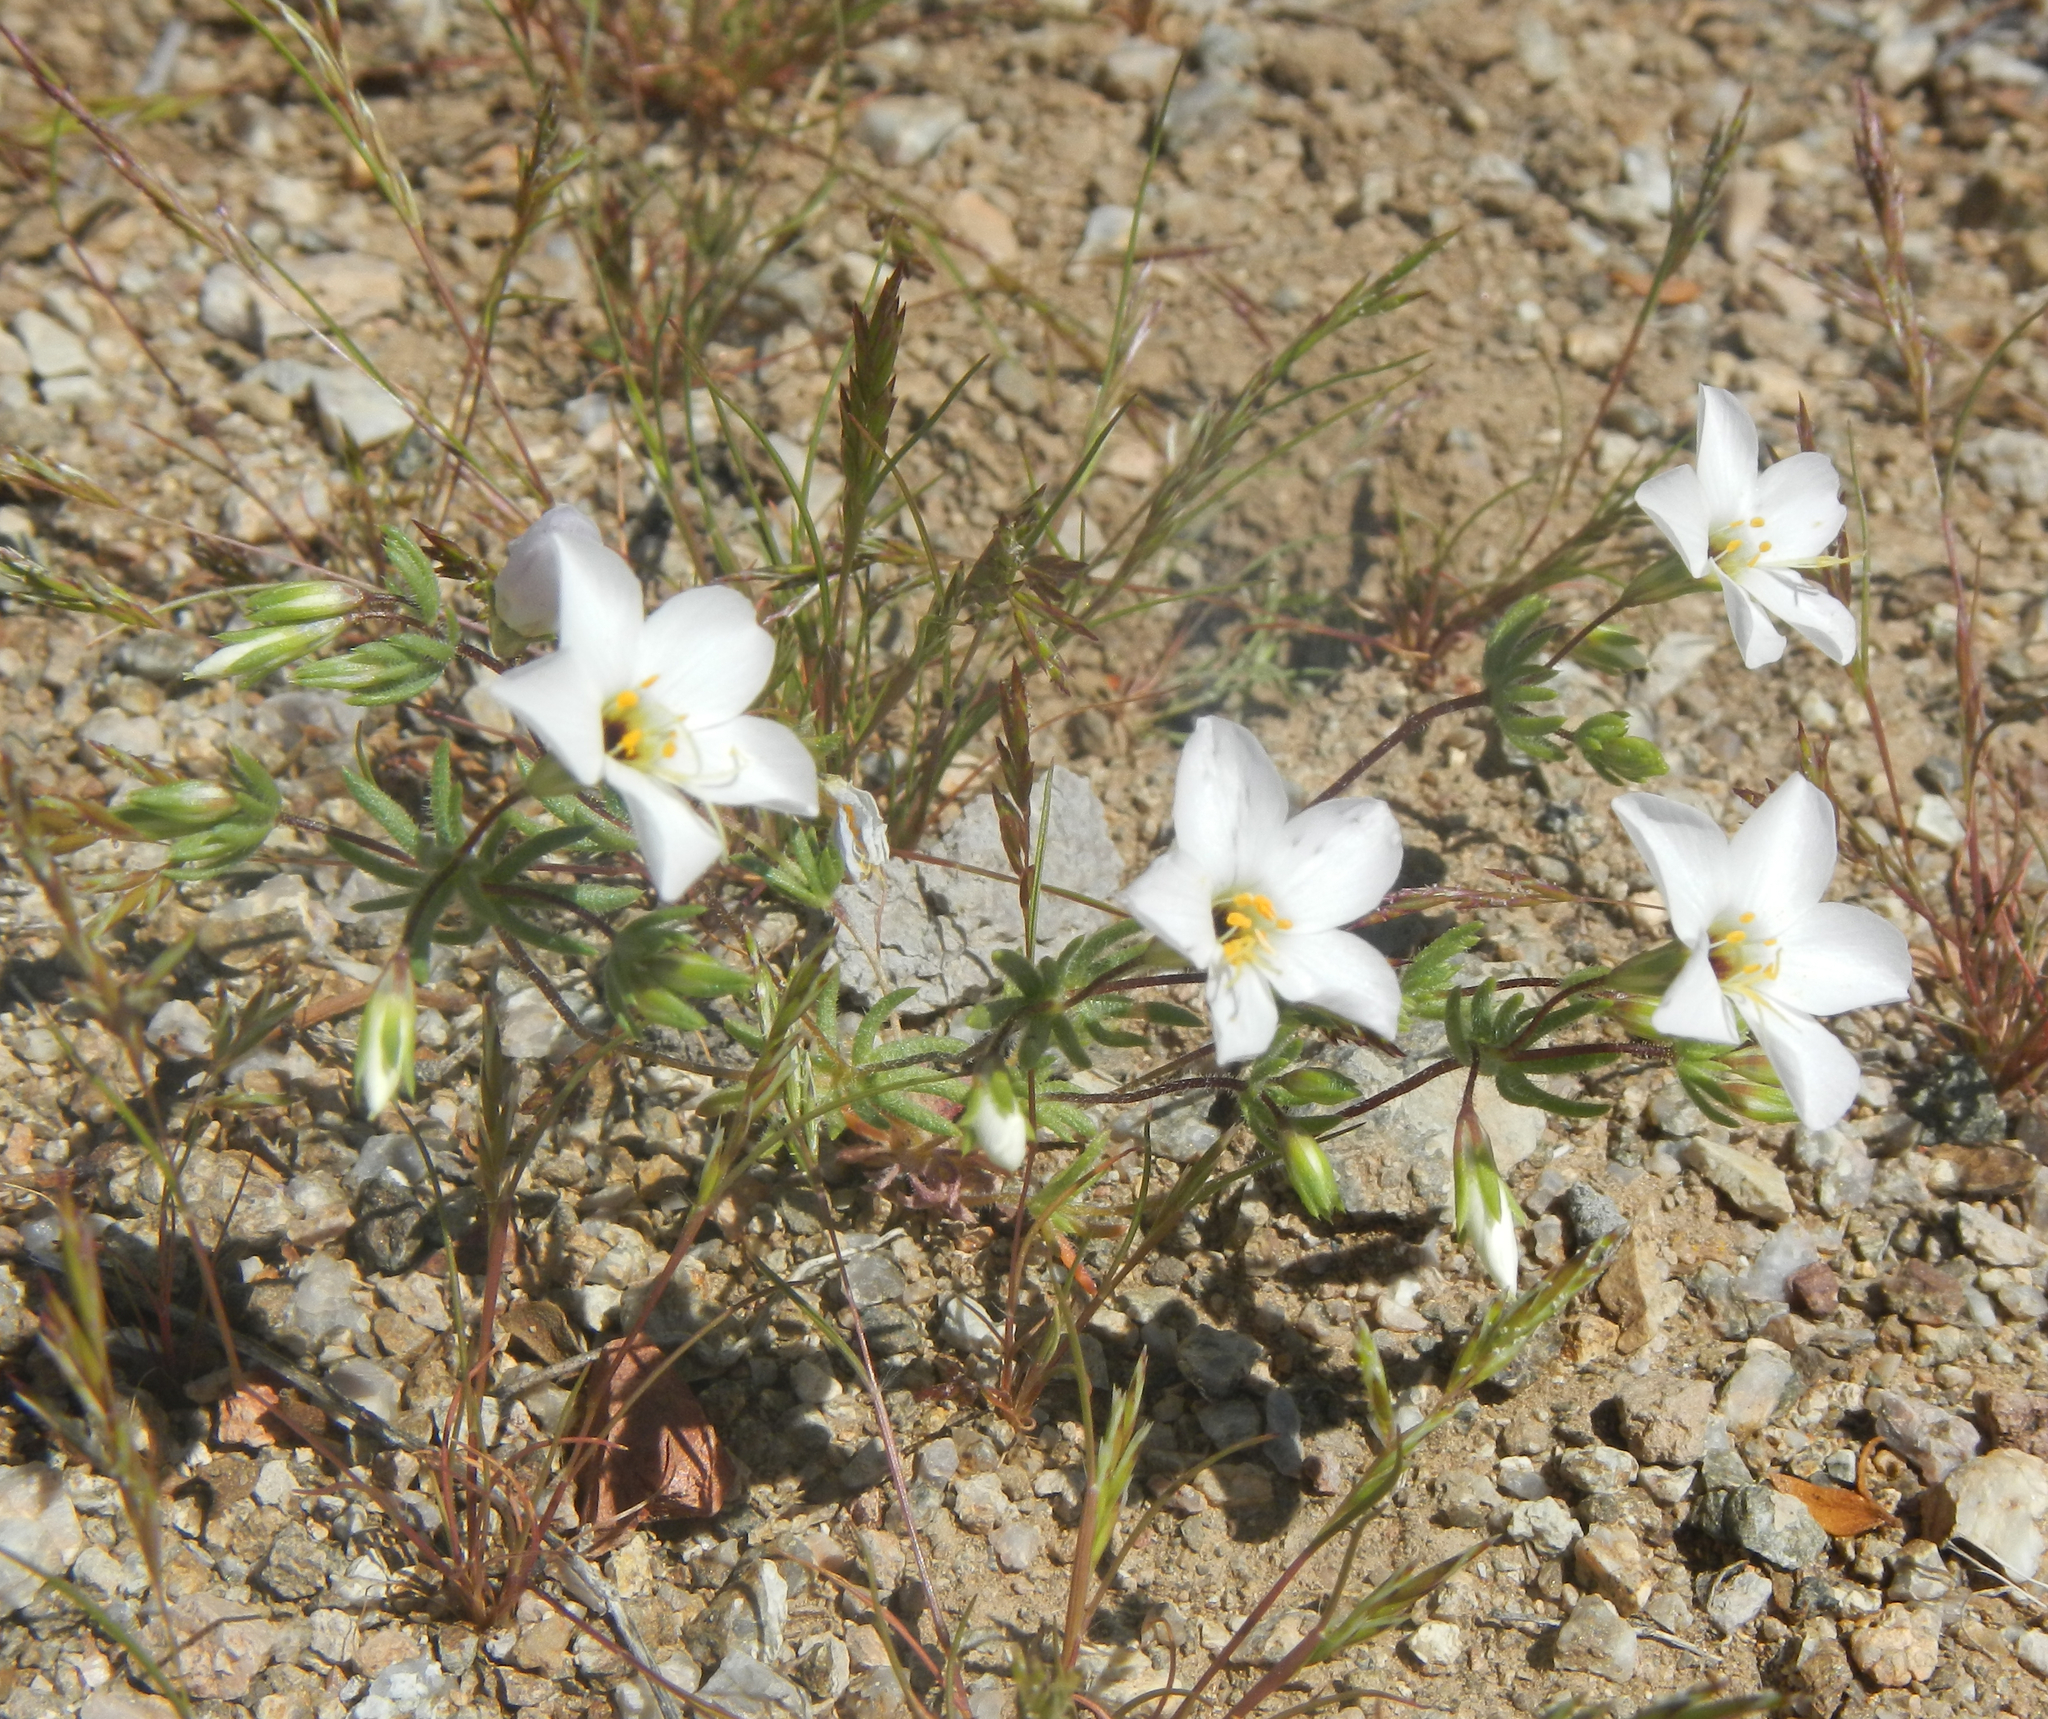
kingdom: Plantae
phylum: Tracheophyta
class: Magnoliopsida
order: Ericales
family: Polemoniaceae
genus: Leptosiphon
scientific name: Leptosiphon chrysanthus
